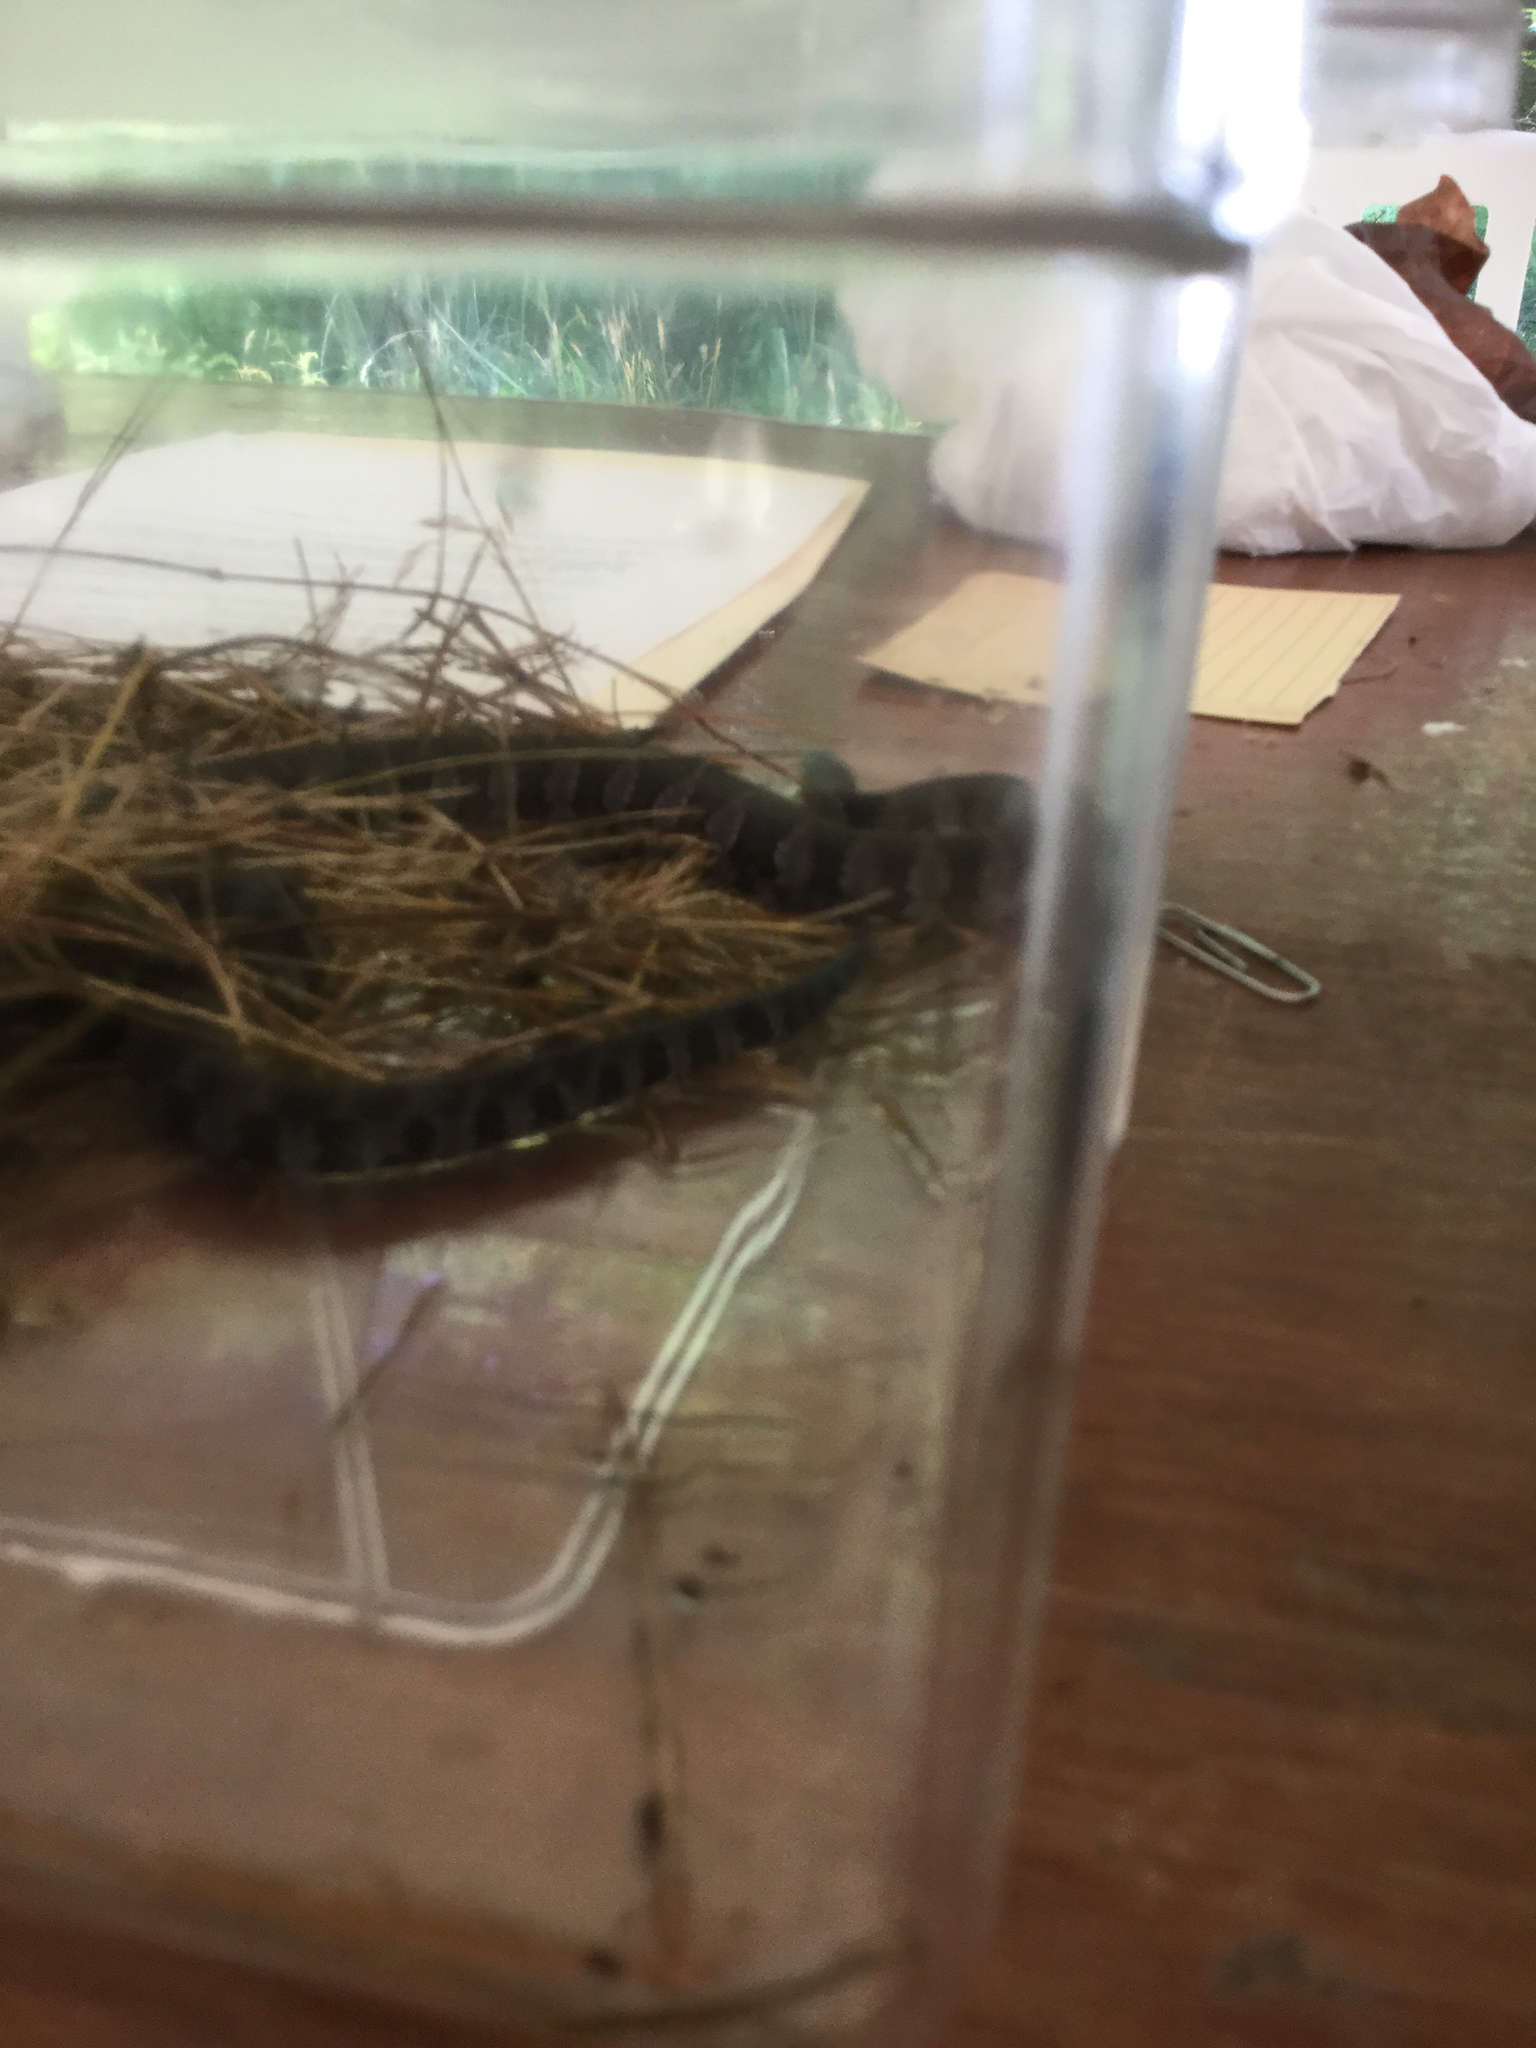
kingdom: Animalia
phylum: Chordata
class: Squamata
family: Colubridae
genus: Nerodia
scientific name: Nerodia sipedon
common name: Northern water snake
